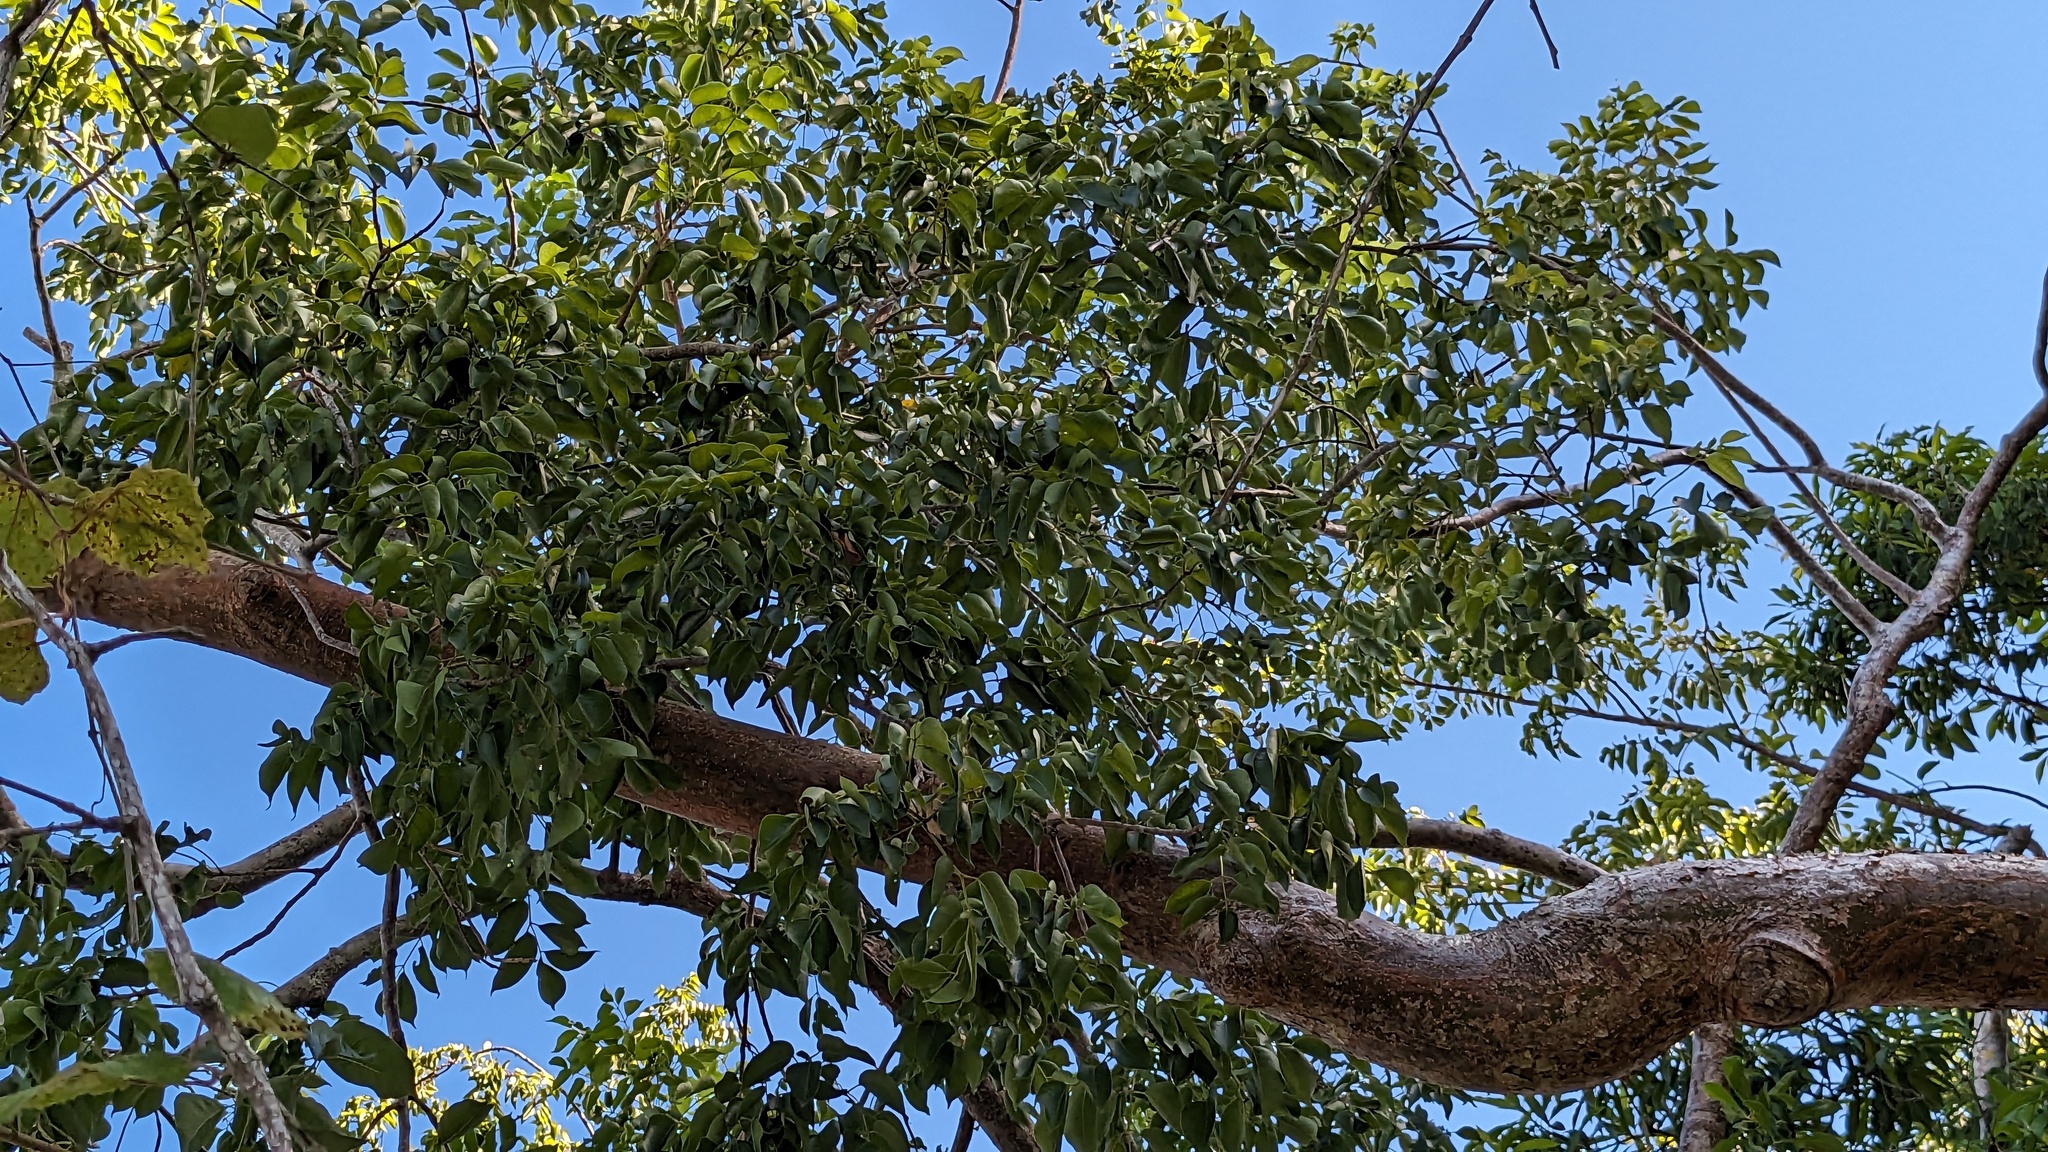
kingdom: Plantae
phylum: Tracheophyta
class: Magnoliopsida
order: Sapindales
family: Burseraceae
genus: Bursera
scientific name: Bursera simaruba
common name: Turpentine tree
